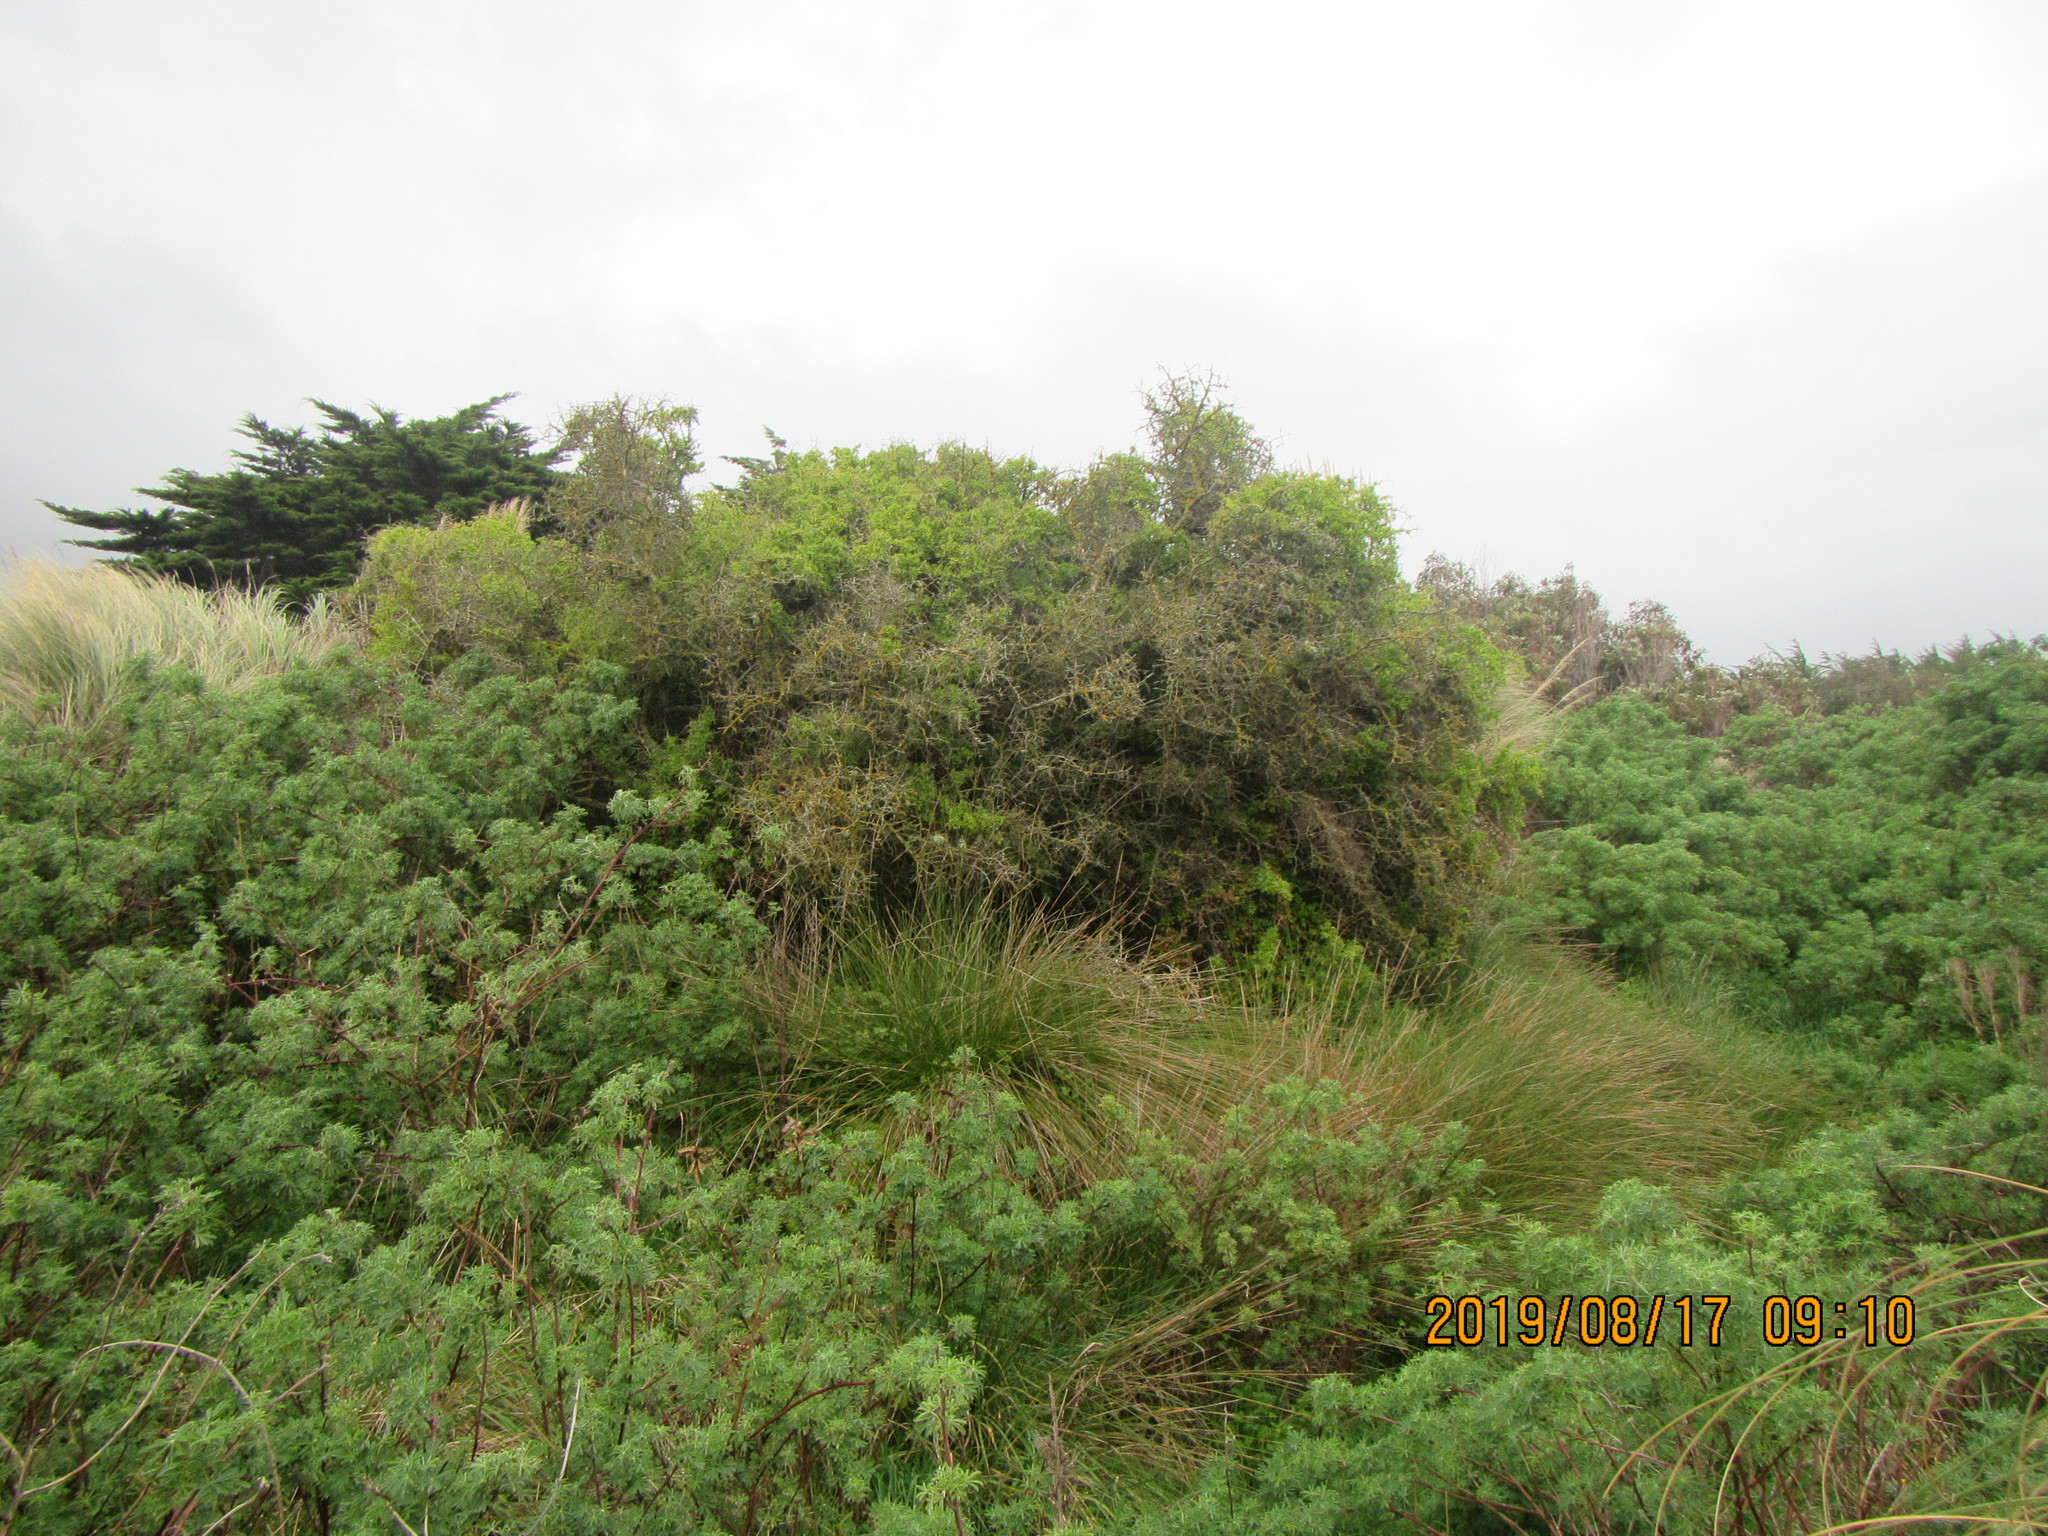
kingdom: Plantae
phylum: Tracheophyta
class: Magnoliopsida
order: Solanales
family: Solanaceae
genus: Lycium
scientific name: Lycium ferocissimum
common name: African boxthorn
